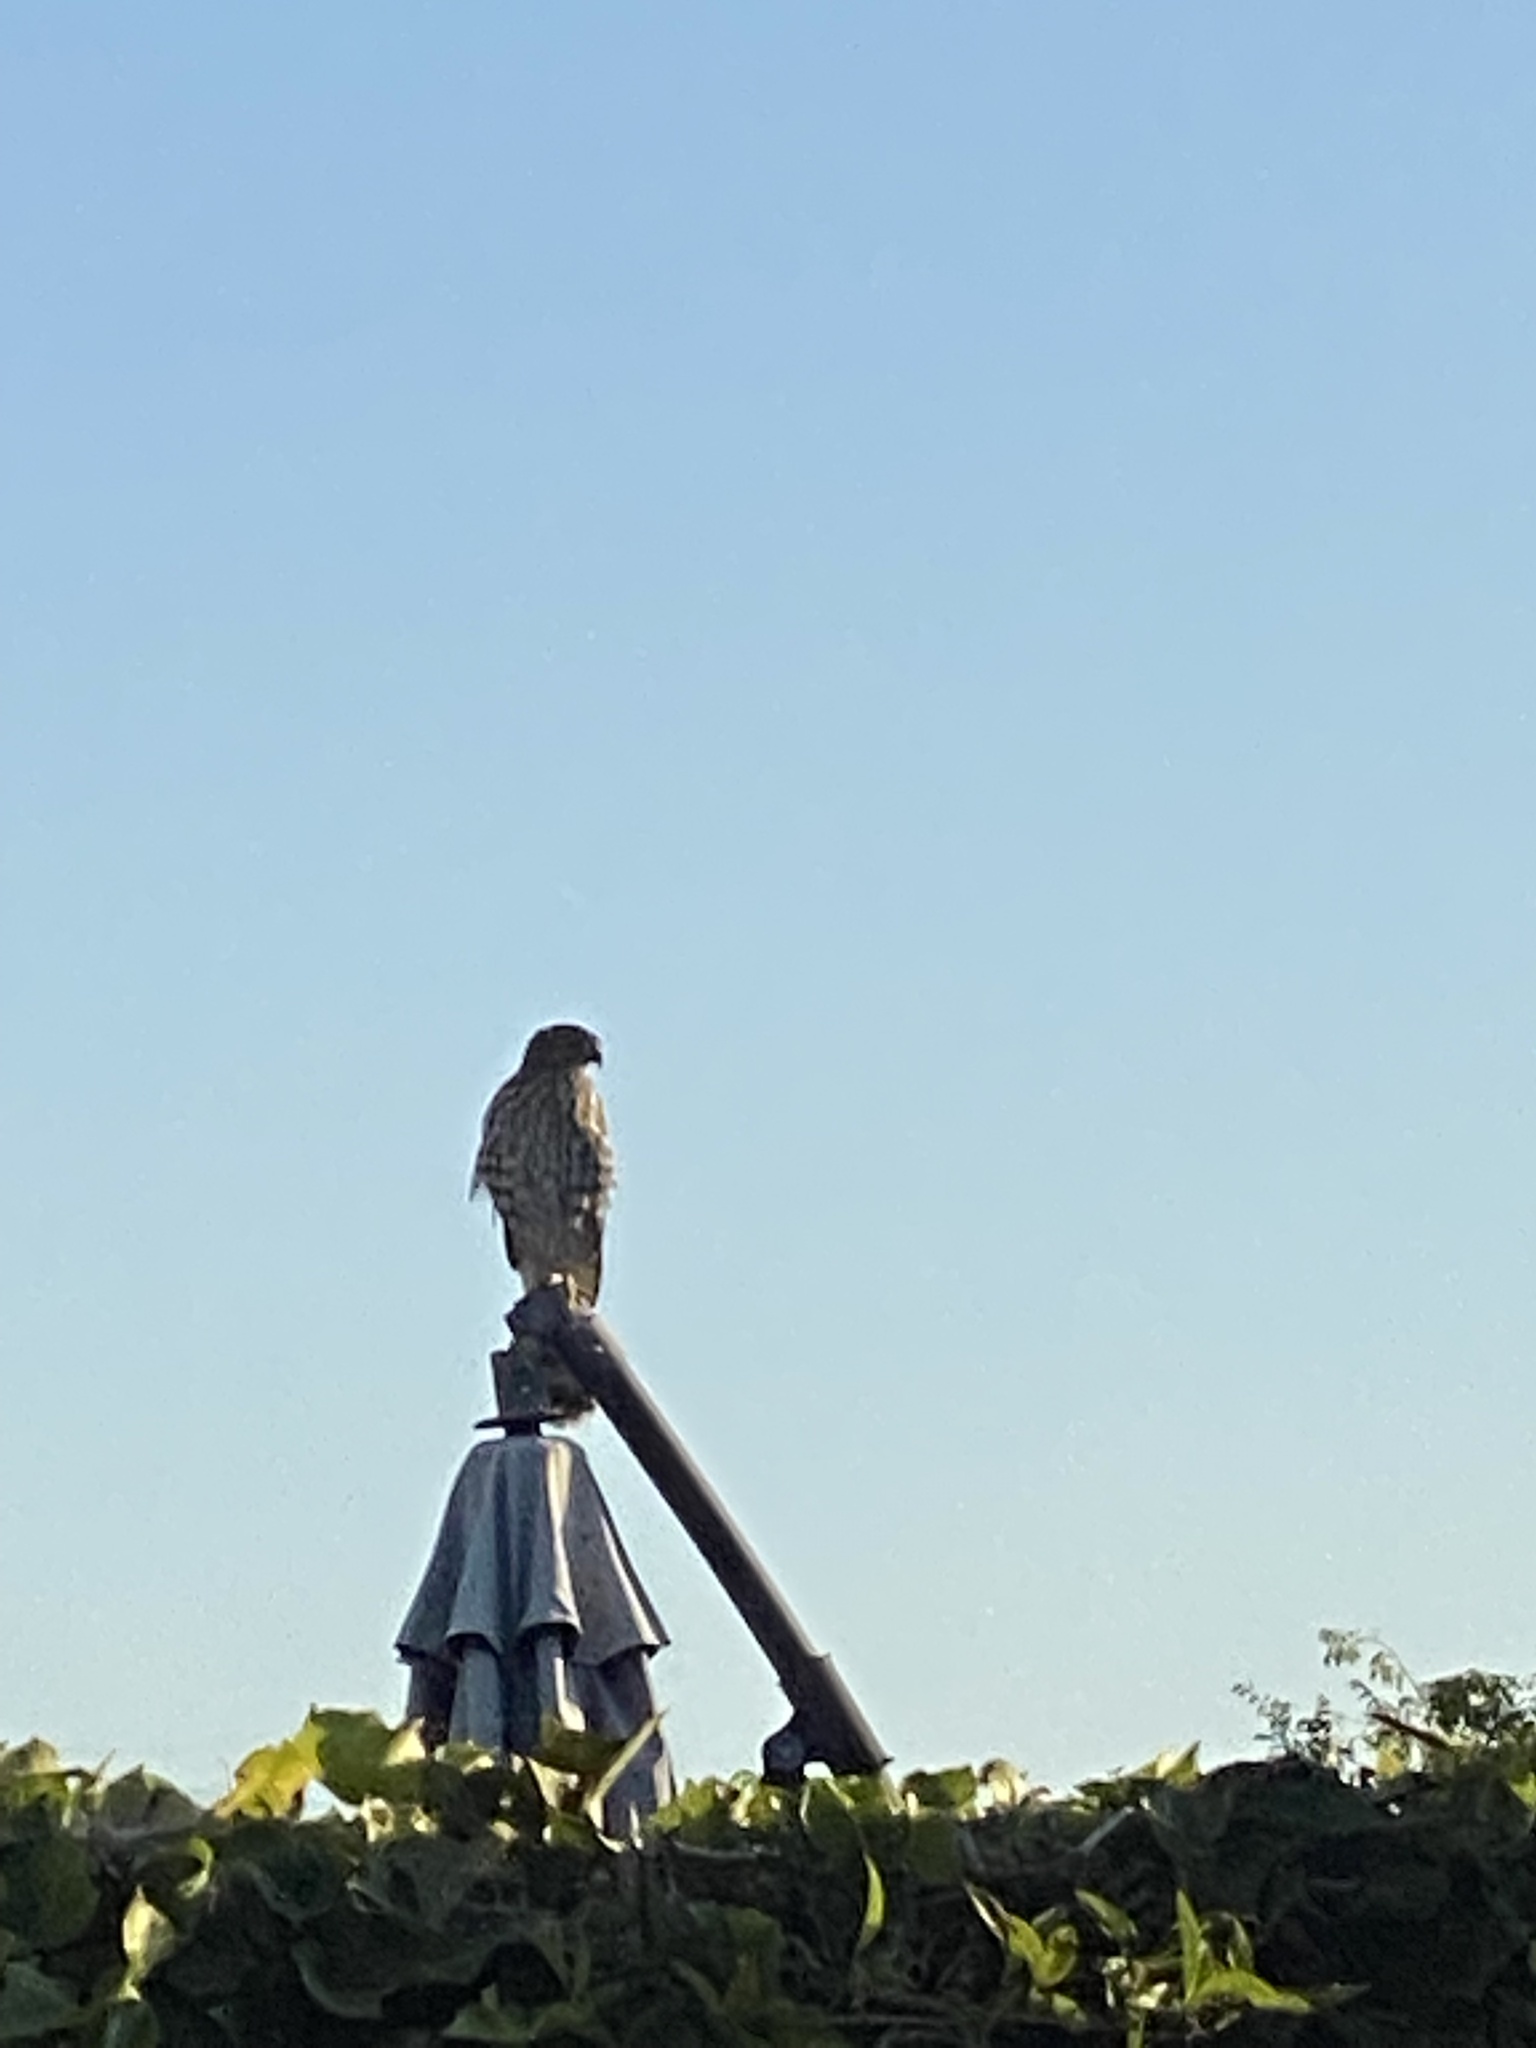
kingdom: Animalia
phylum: Chordata
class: Aves
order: Accipitriformes
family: Accipitridae
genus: Accipiter
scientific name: Accipiter cooperii
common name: Cooper's hawk
